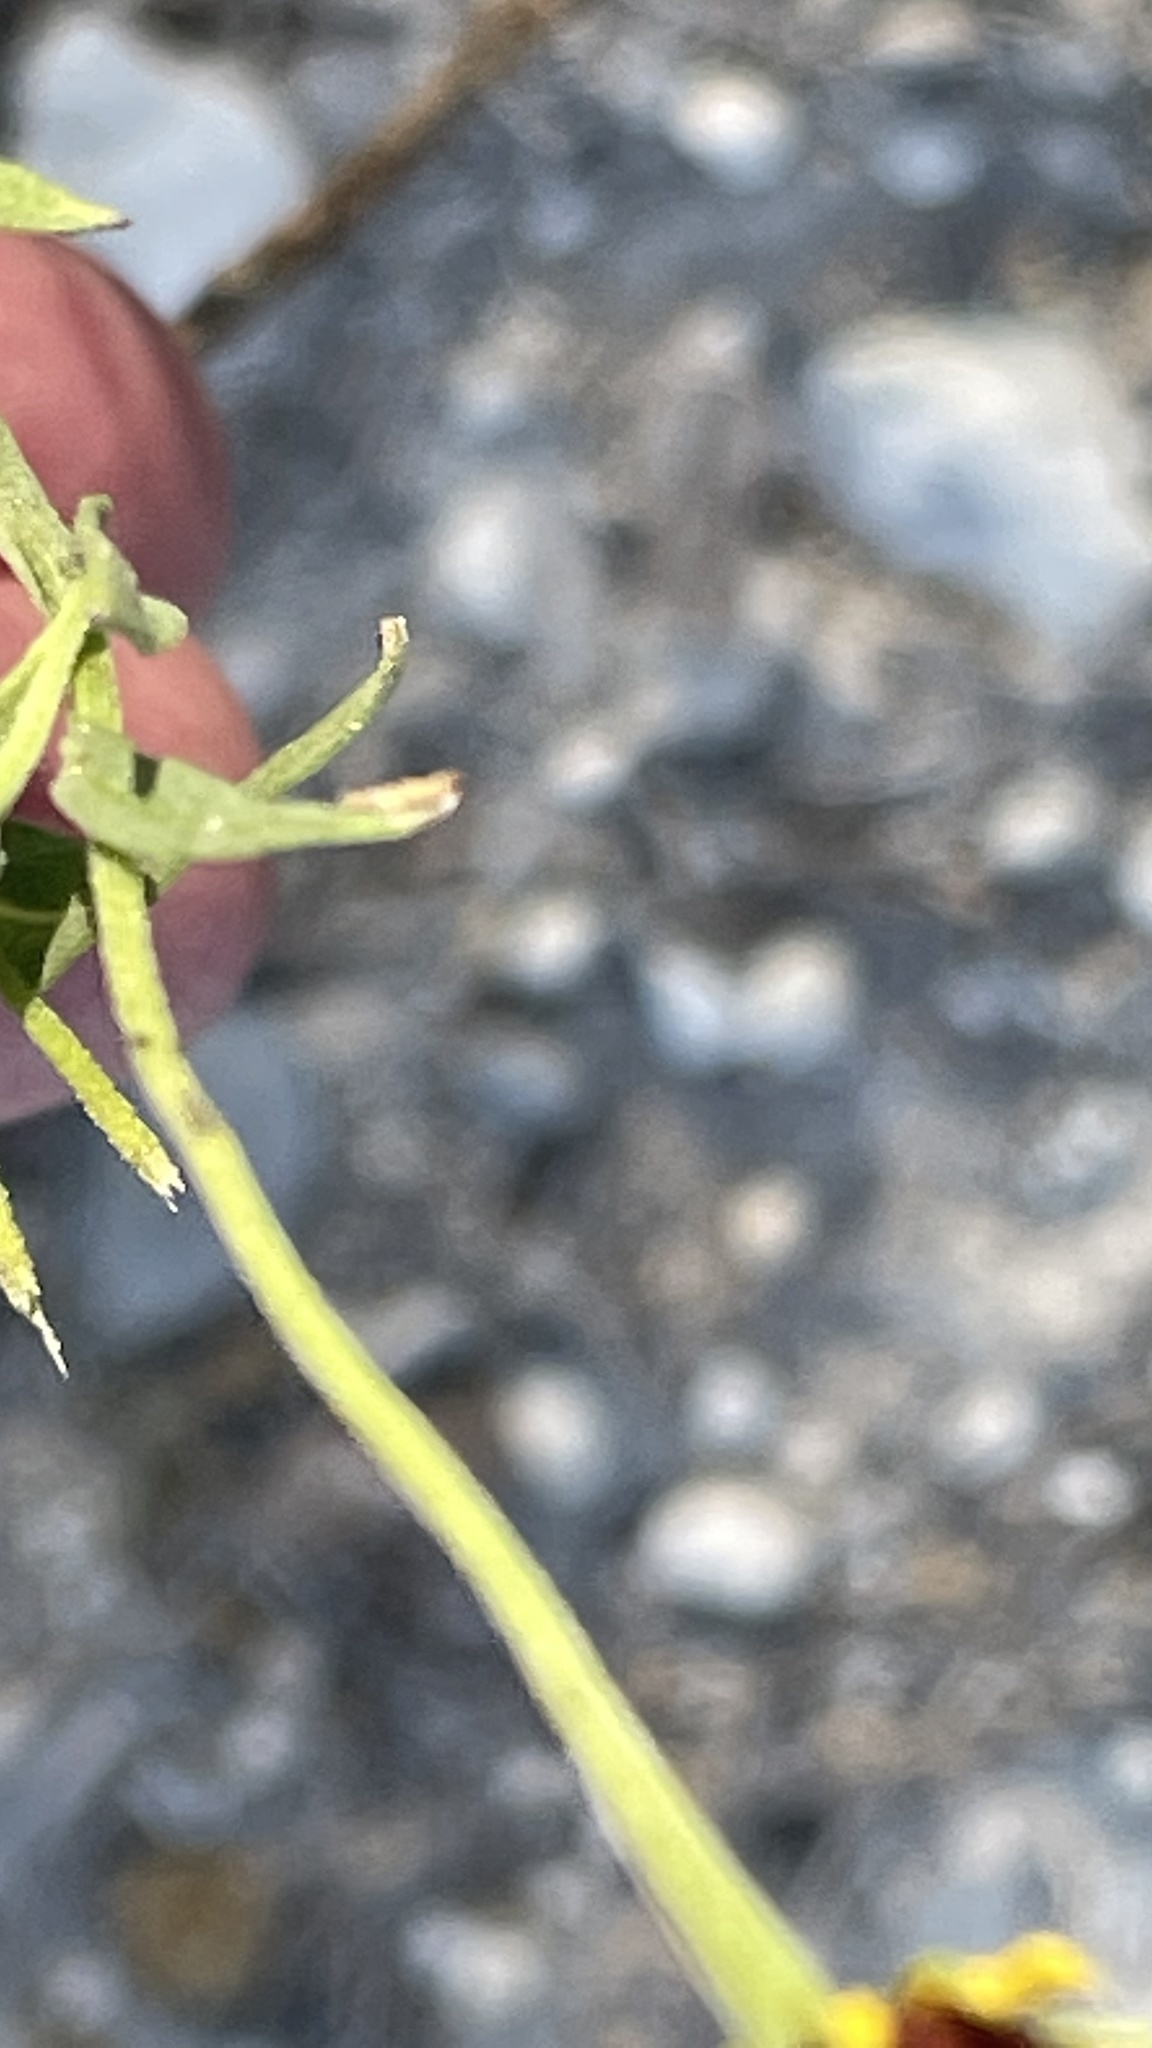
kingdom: Plantae
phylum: Tracheophyta
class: Magnoliopsida
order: Asterales
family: Asteraceae
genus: Helenium
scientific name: Helenium amphibolum
